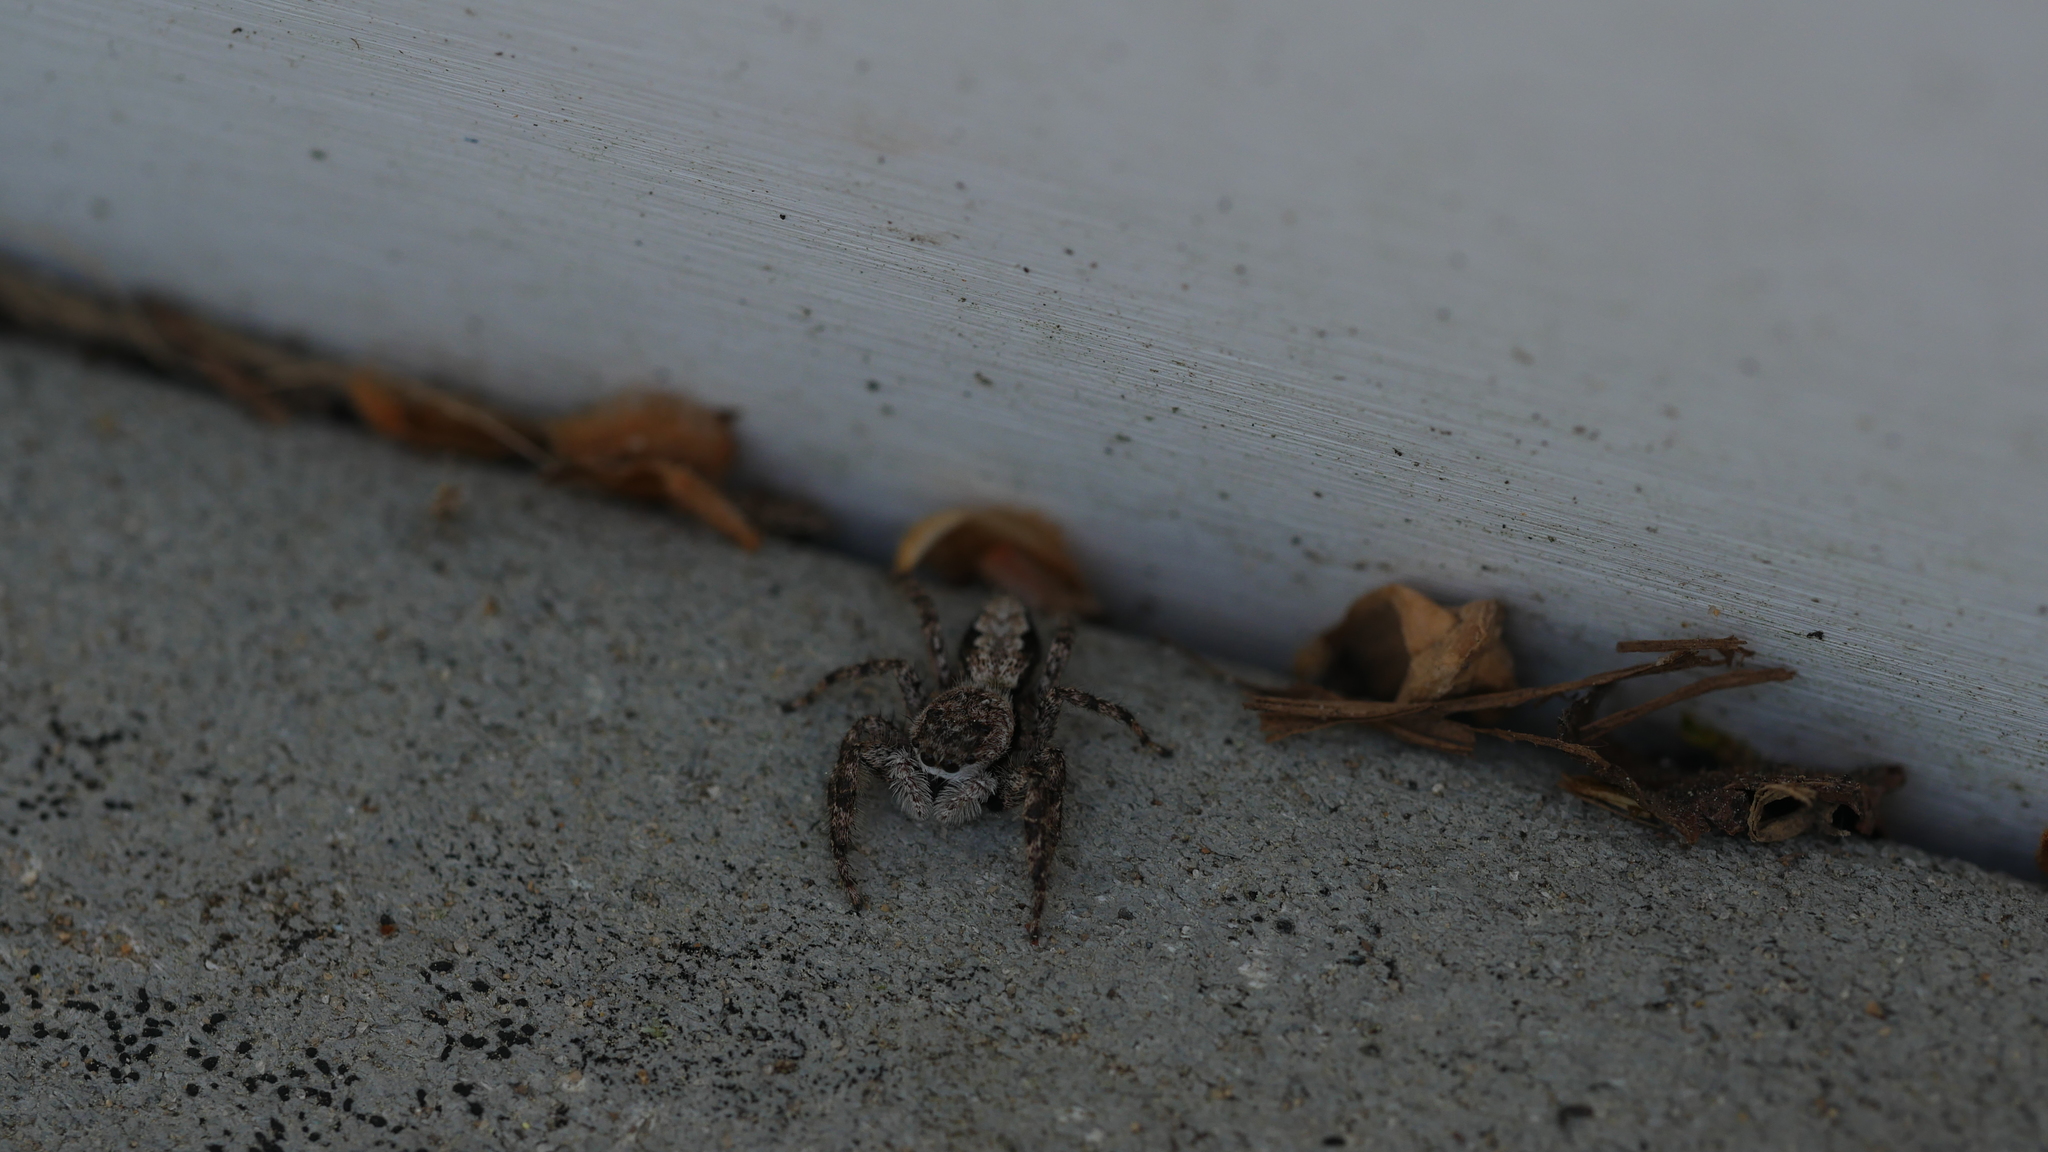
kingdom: Animalia
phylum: Arthropoda
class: Arachnida
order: Araneae
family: Salticidae
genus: Platycryptus
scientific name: Platycryptus undatus
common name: Tan jumping spider
